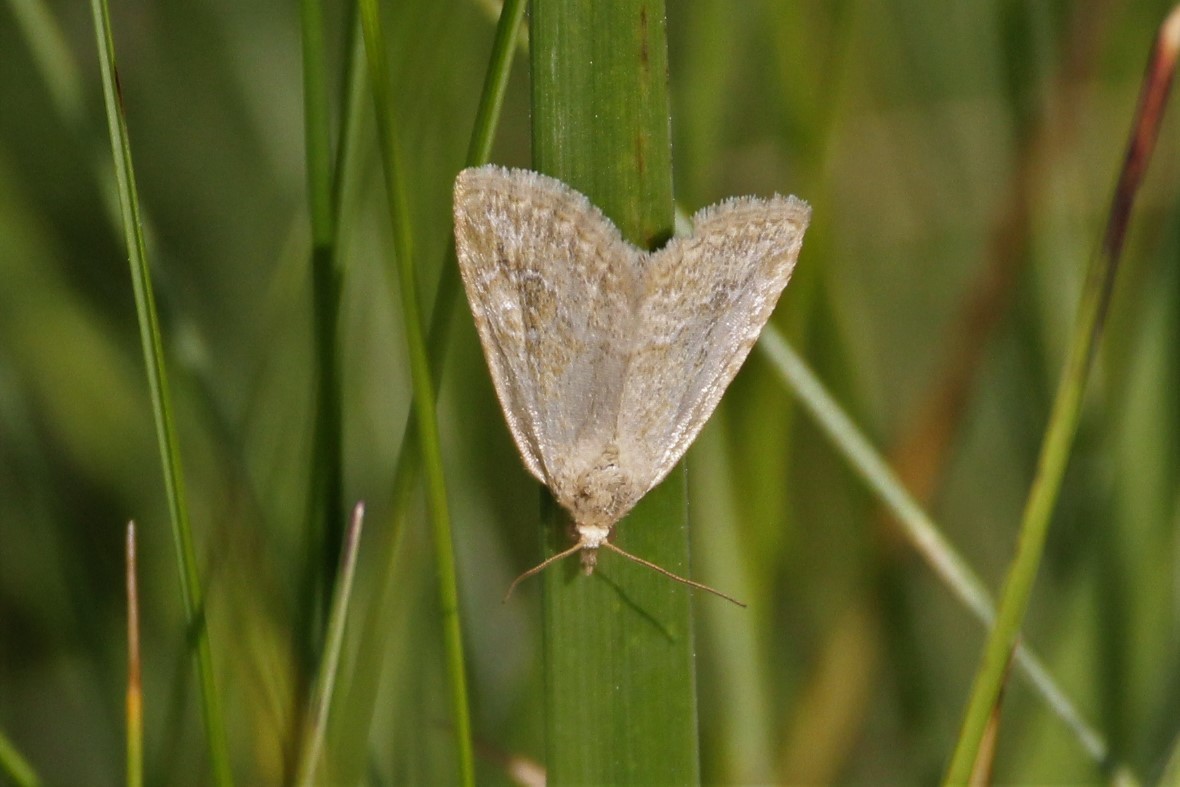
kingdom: Animalia
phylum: Arthropoda
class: Insecta
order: Lepidoptera
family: Noctuidae
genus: Protodeltote
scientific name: Protodeltote albidula
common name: Pale glyph
